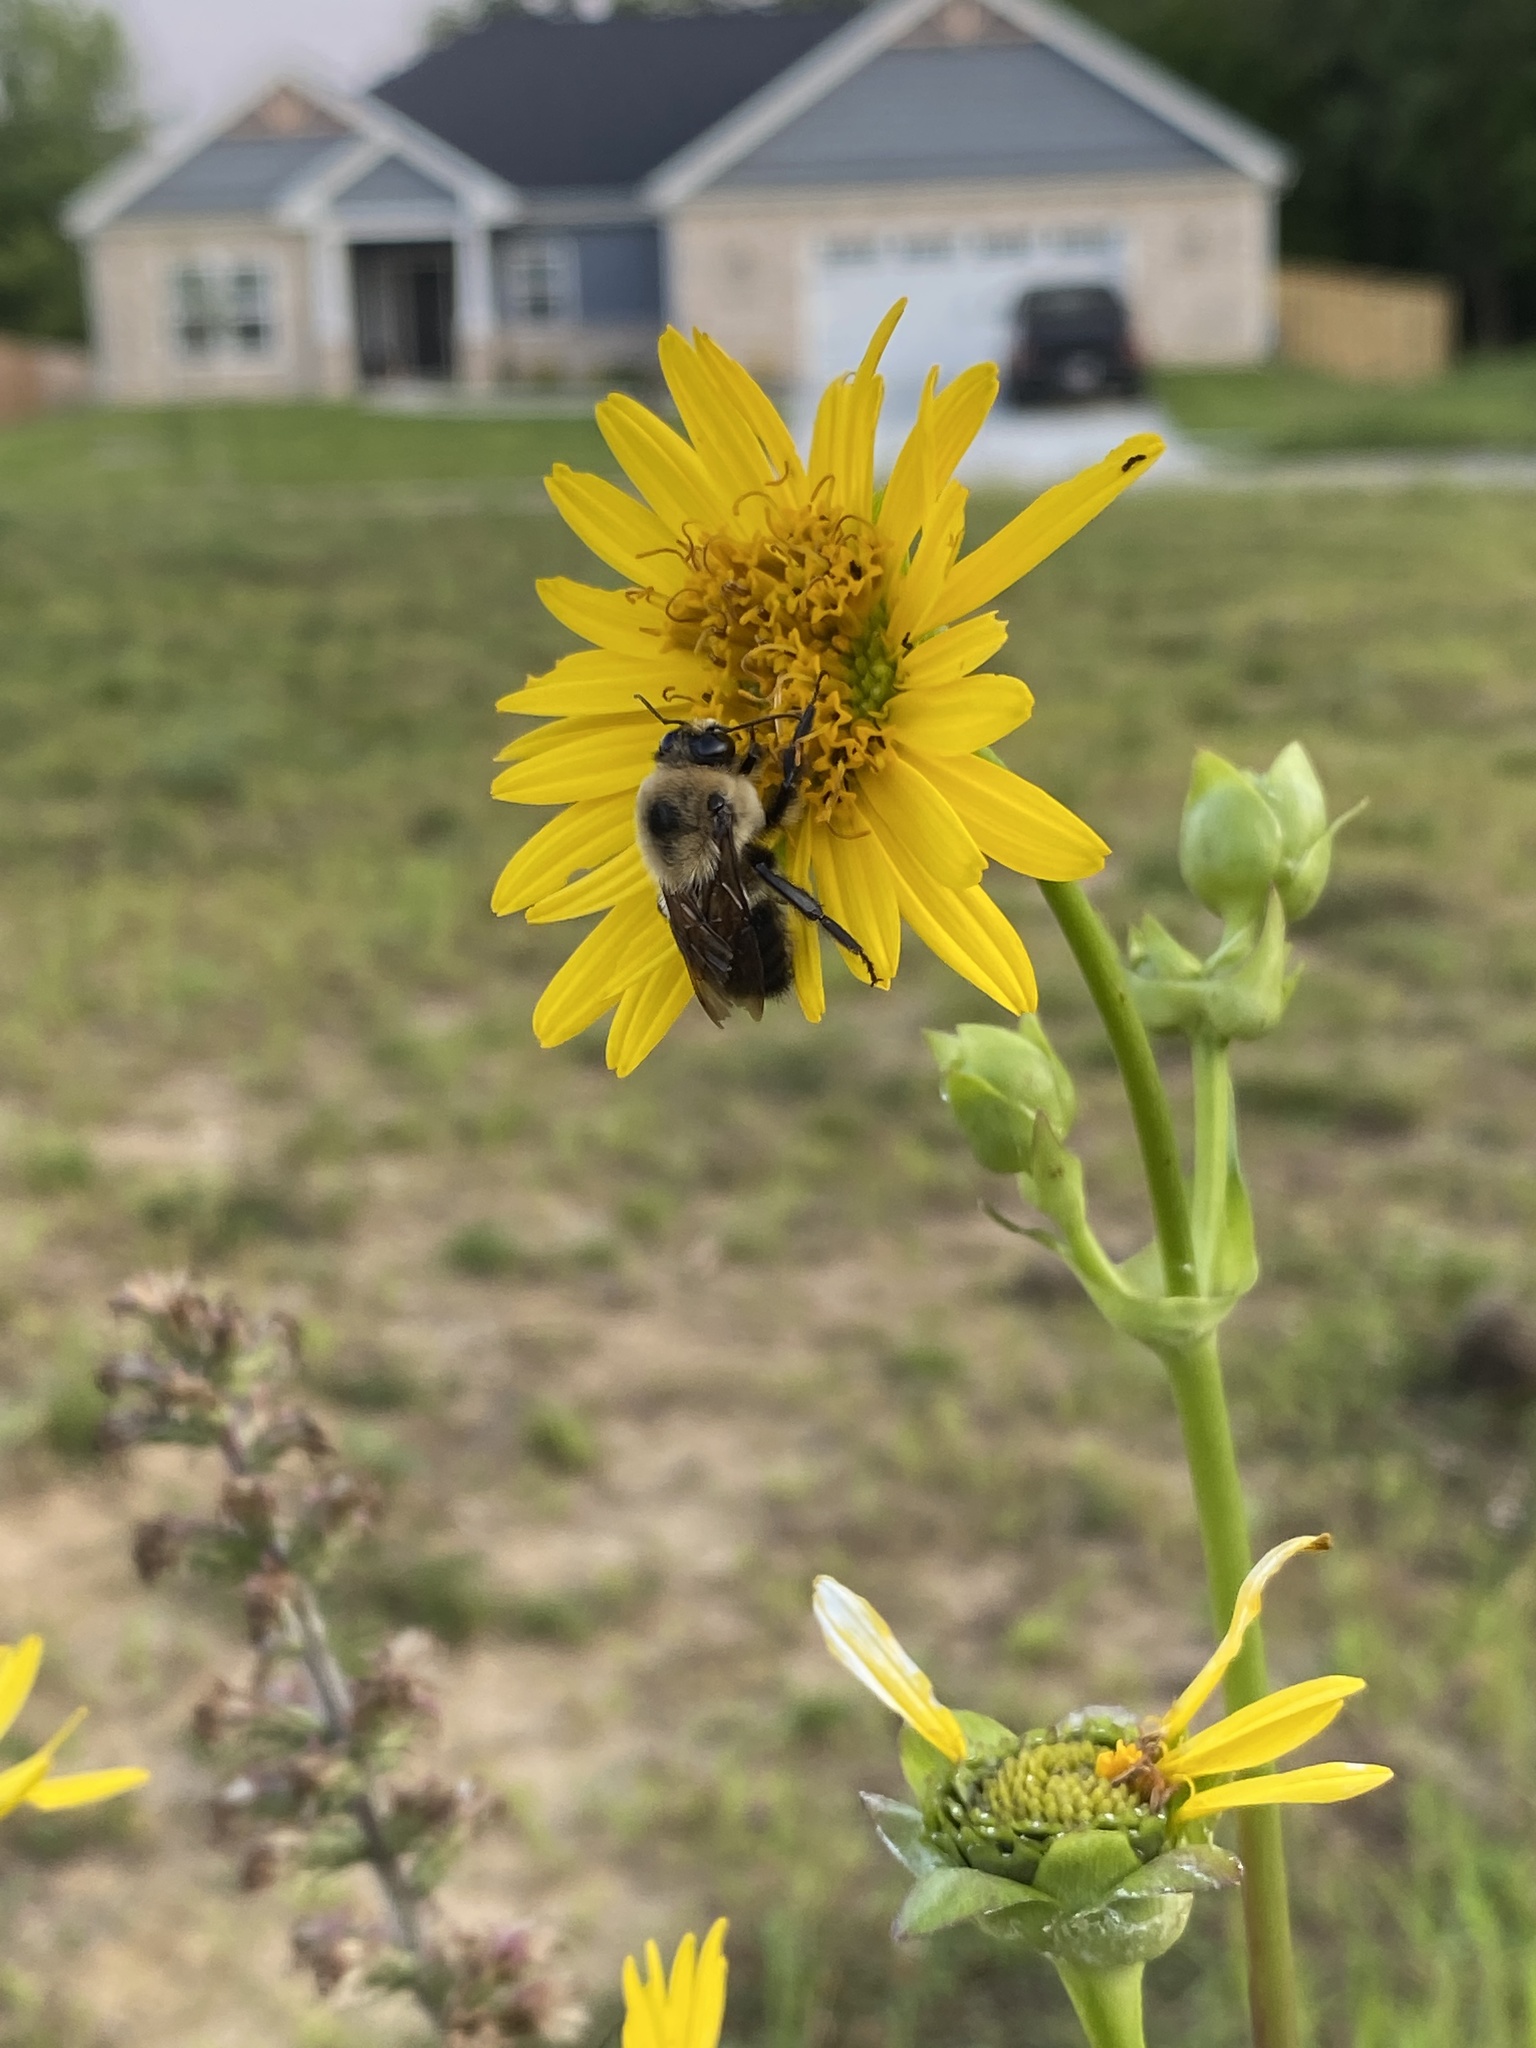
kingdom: Animalia
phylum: Arthropoda
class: Insecta
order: Hymenoptera
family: Apidae
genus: Bombus
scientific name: Bombus griseocollis
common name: Brown-belted bumble bee
